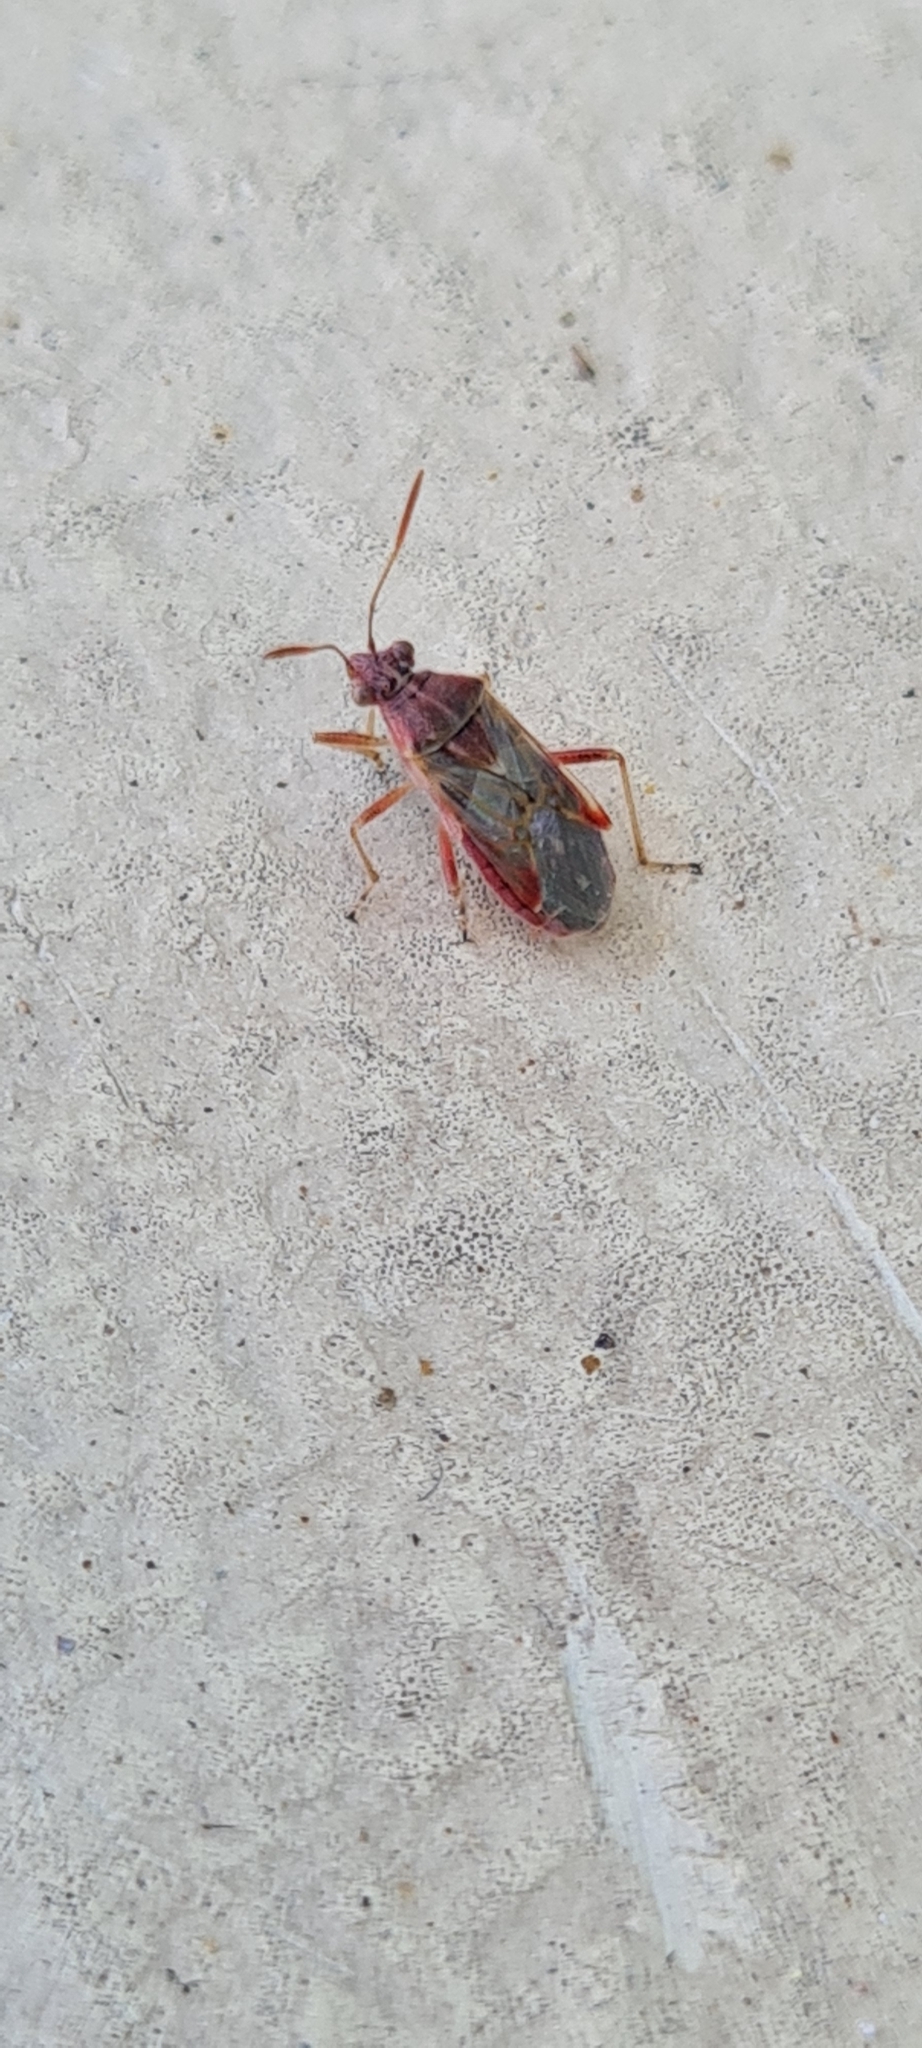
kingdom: Animalia
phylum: Arthropoda
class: Insecta
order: Hemiptera
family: Rhopalidae
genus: Liorhyssus
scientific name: Liorhyssus hyalinus
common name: Scentless plant bug
